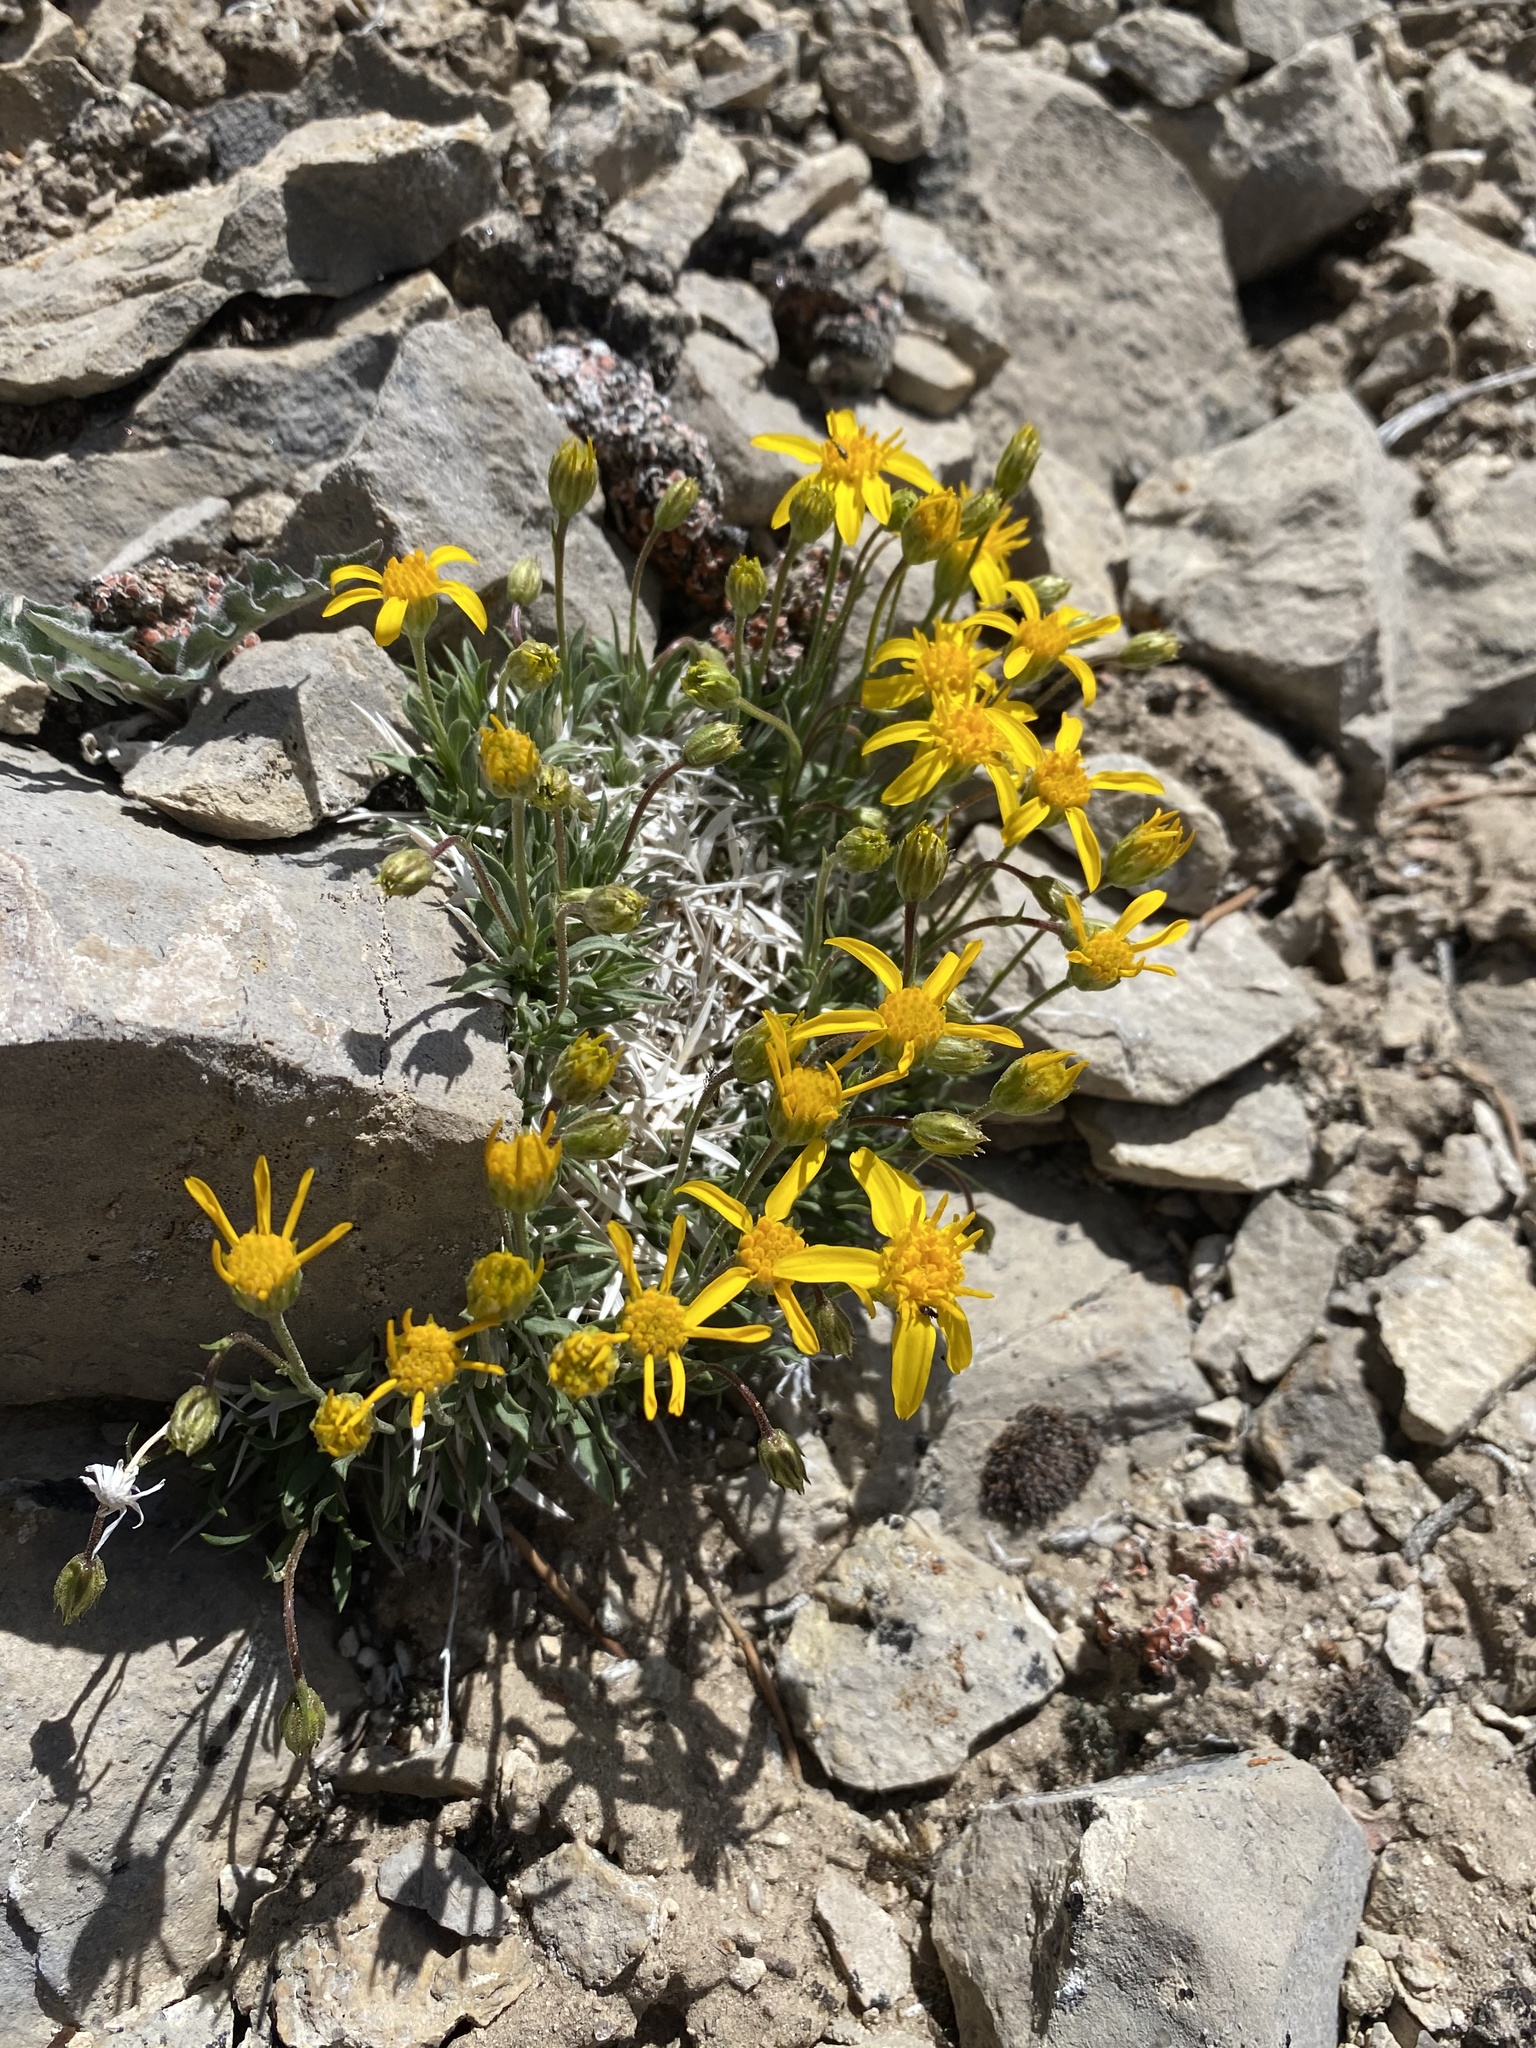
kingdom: Plantae
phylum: Tracheophyta
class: Magnoliopsida
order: Asterales
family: Asteraceae
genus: Stenotus
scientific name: Stenotus acaulis
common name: Stemless goldenweed
